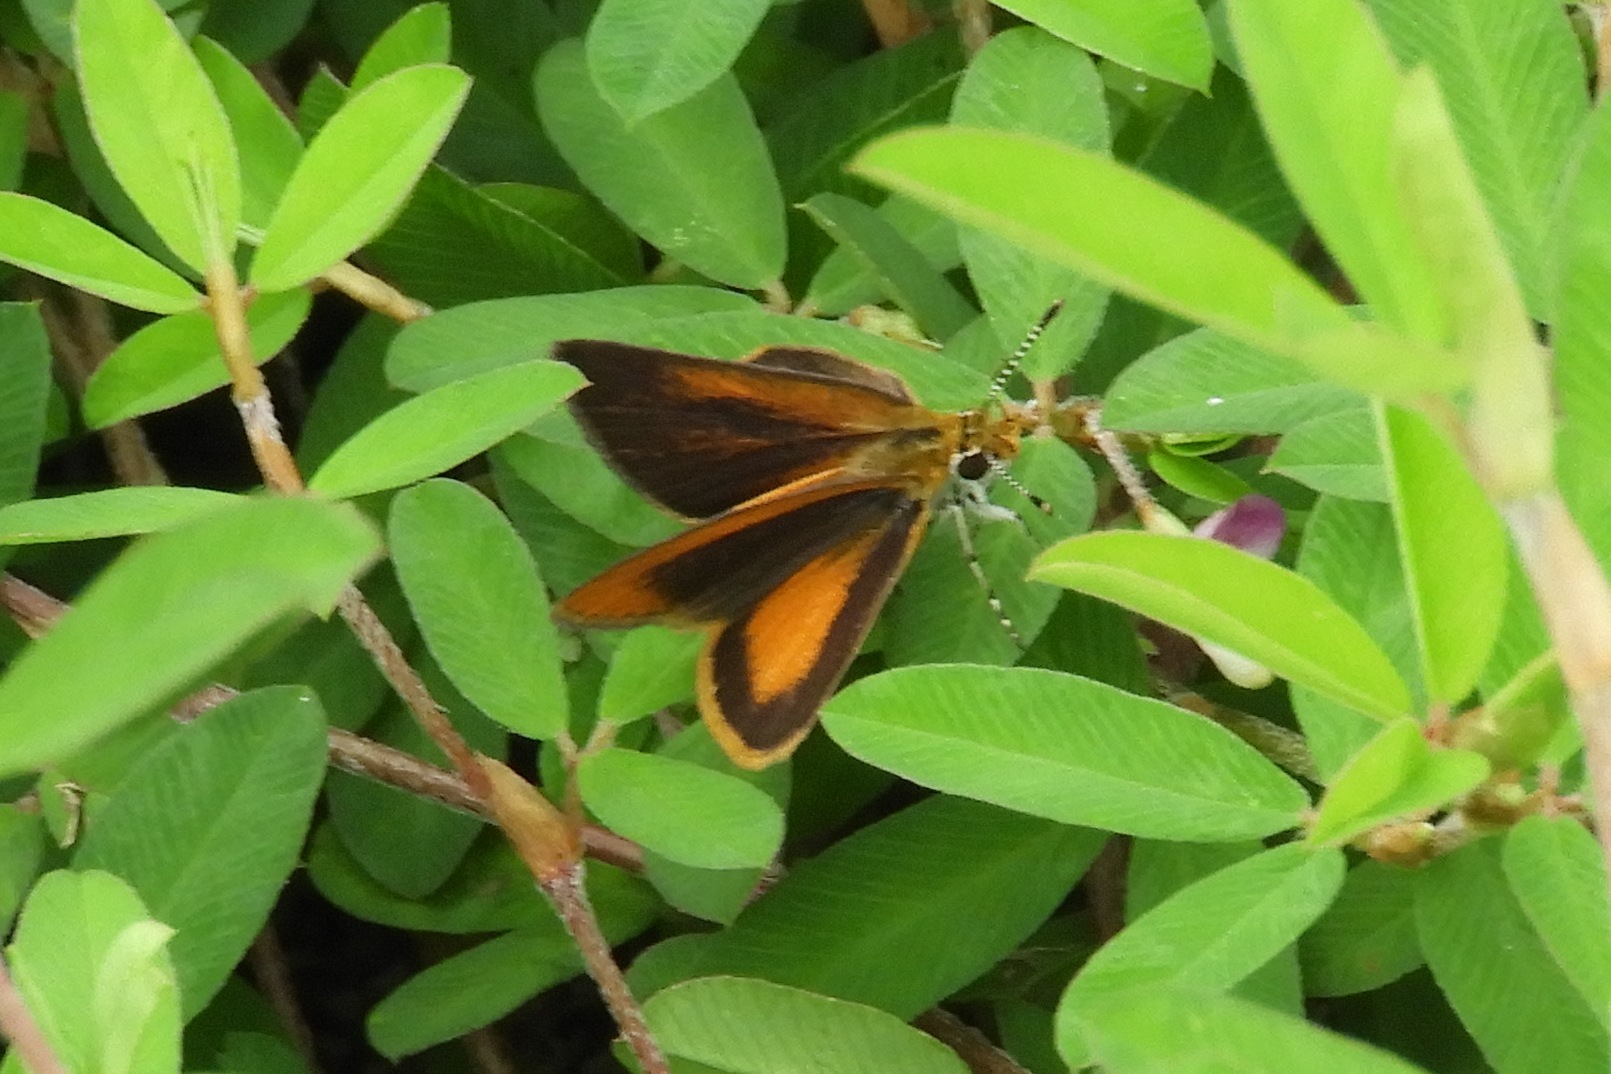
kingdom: Animalia
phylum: Arthropoda
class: Insecta
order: Lepidoptera
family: Hesperiidae
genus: Ancyloxypha
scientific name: Ancyloxypha numitor
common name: Least skipper
